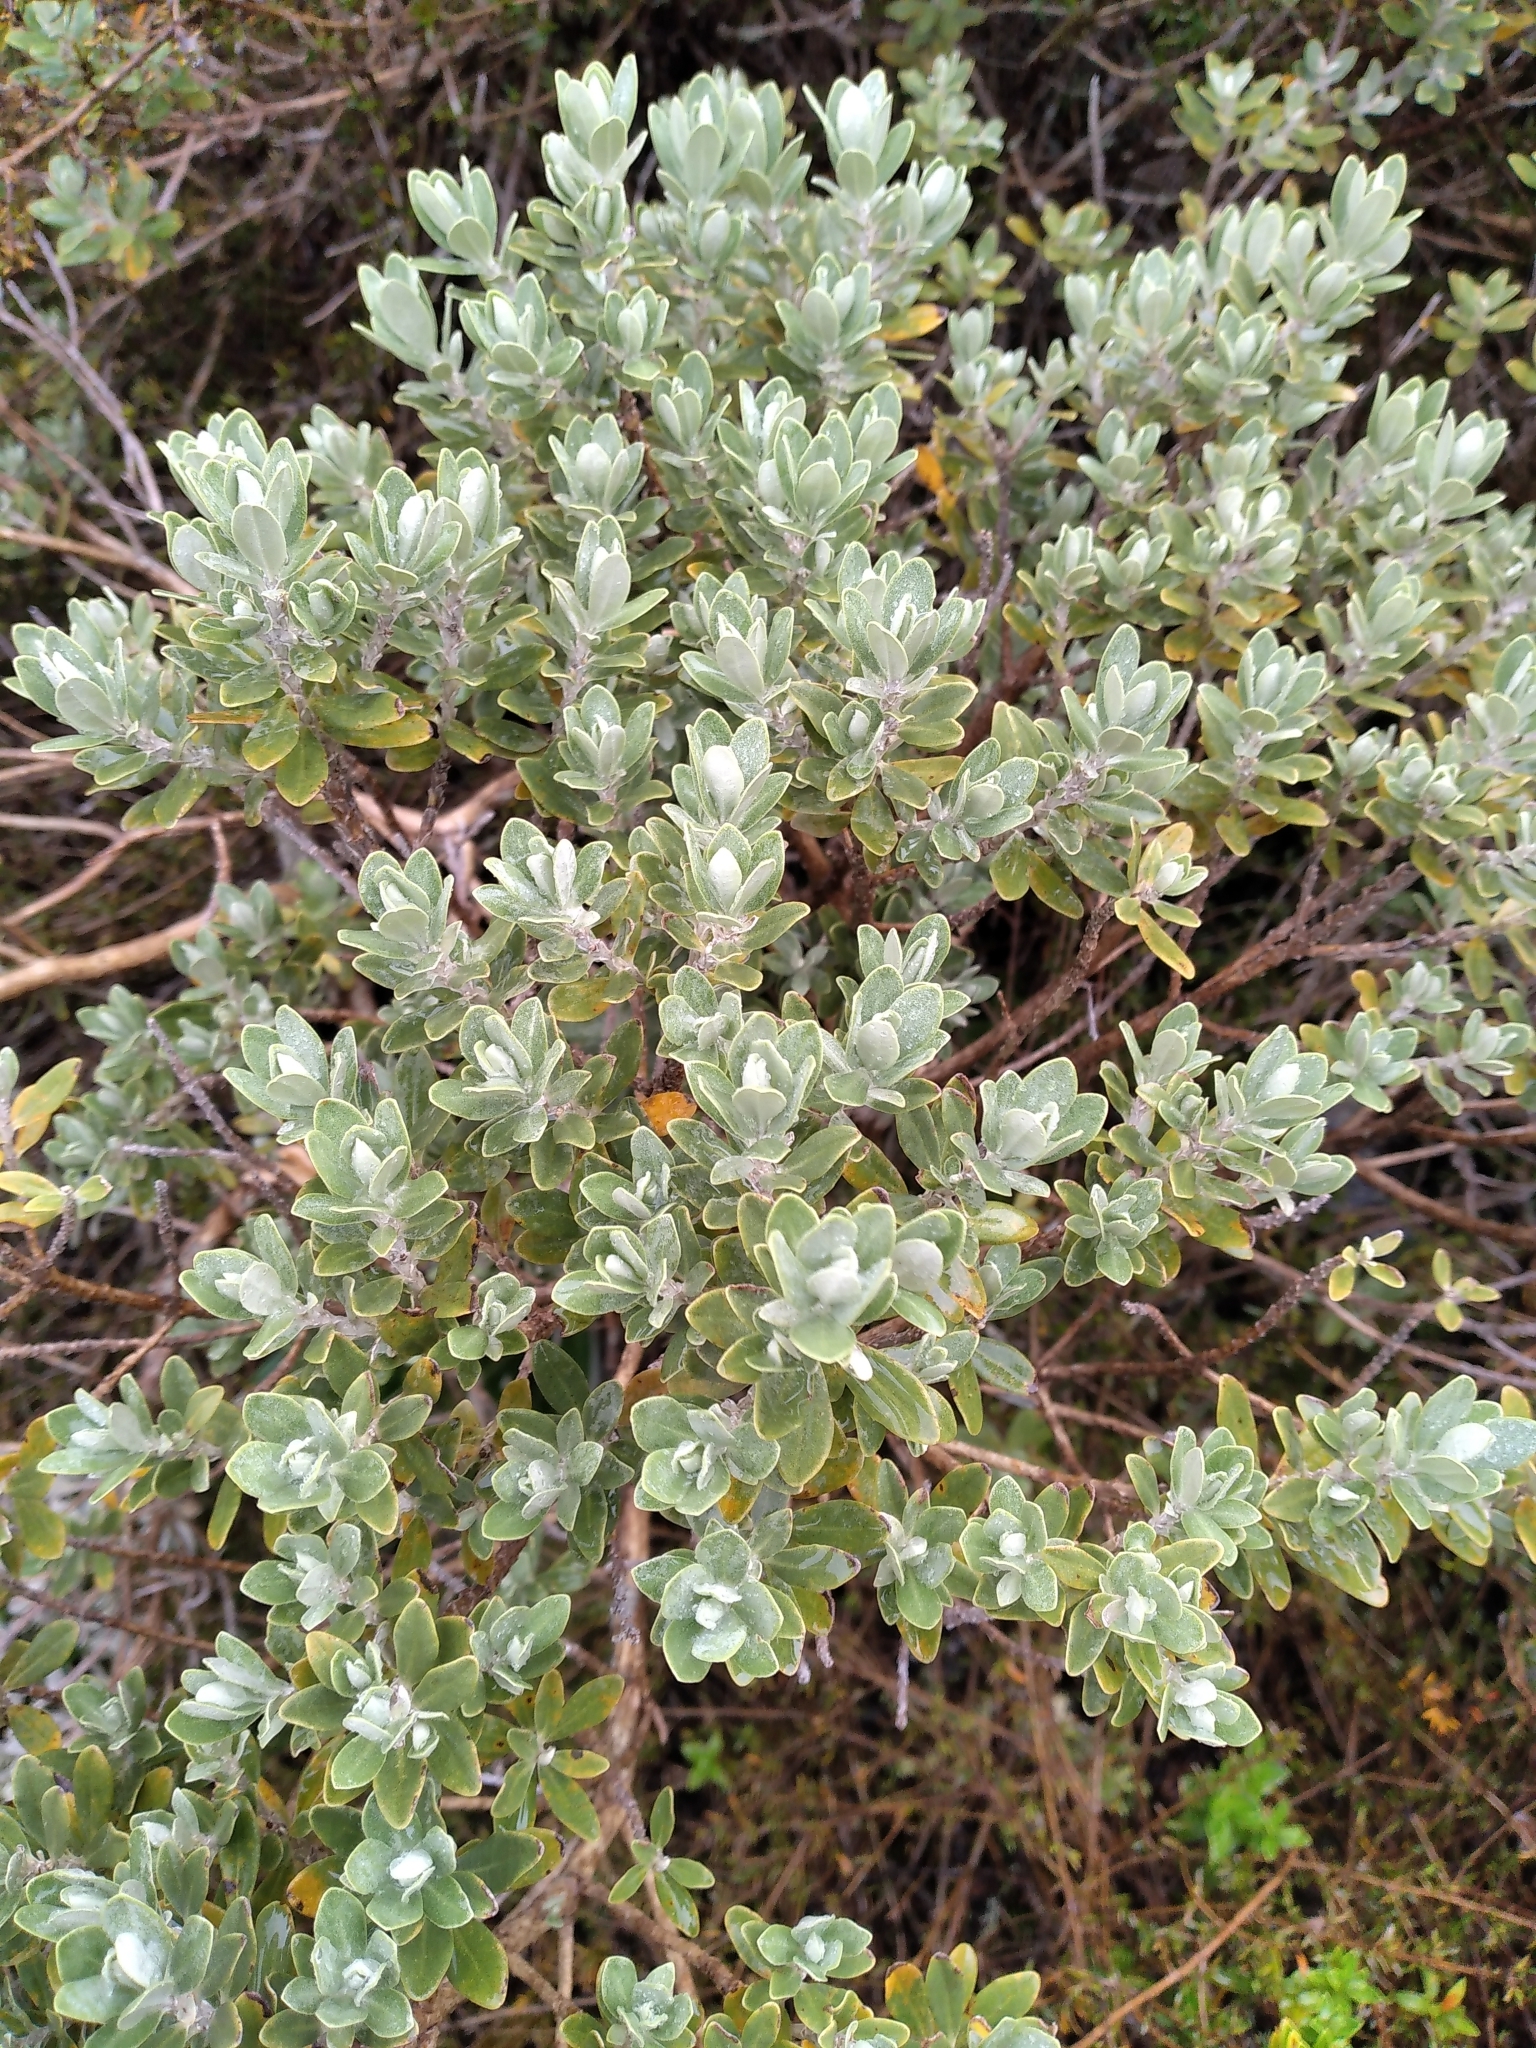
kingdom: Plantae
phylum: Tracheophyta
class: Magnoliopsida
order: Asterales
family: Asteraceae
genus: Olearia
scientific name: Olearia moschata
